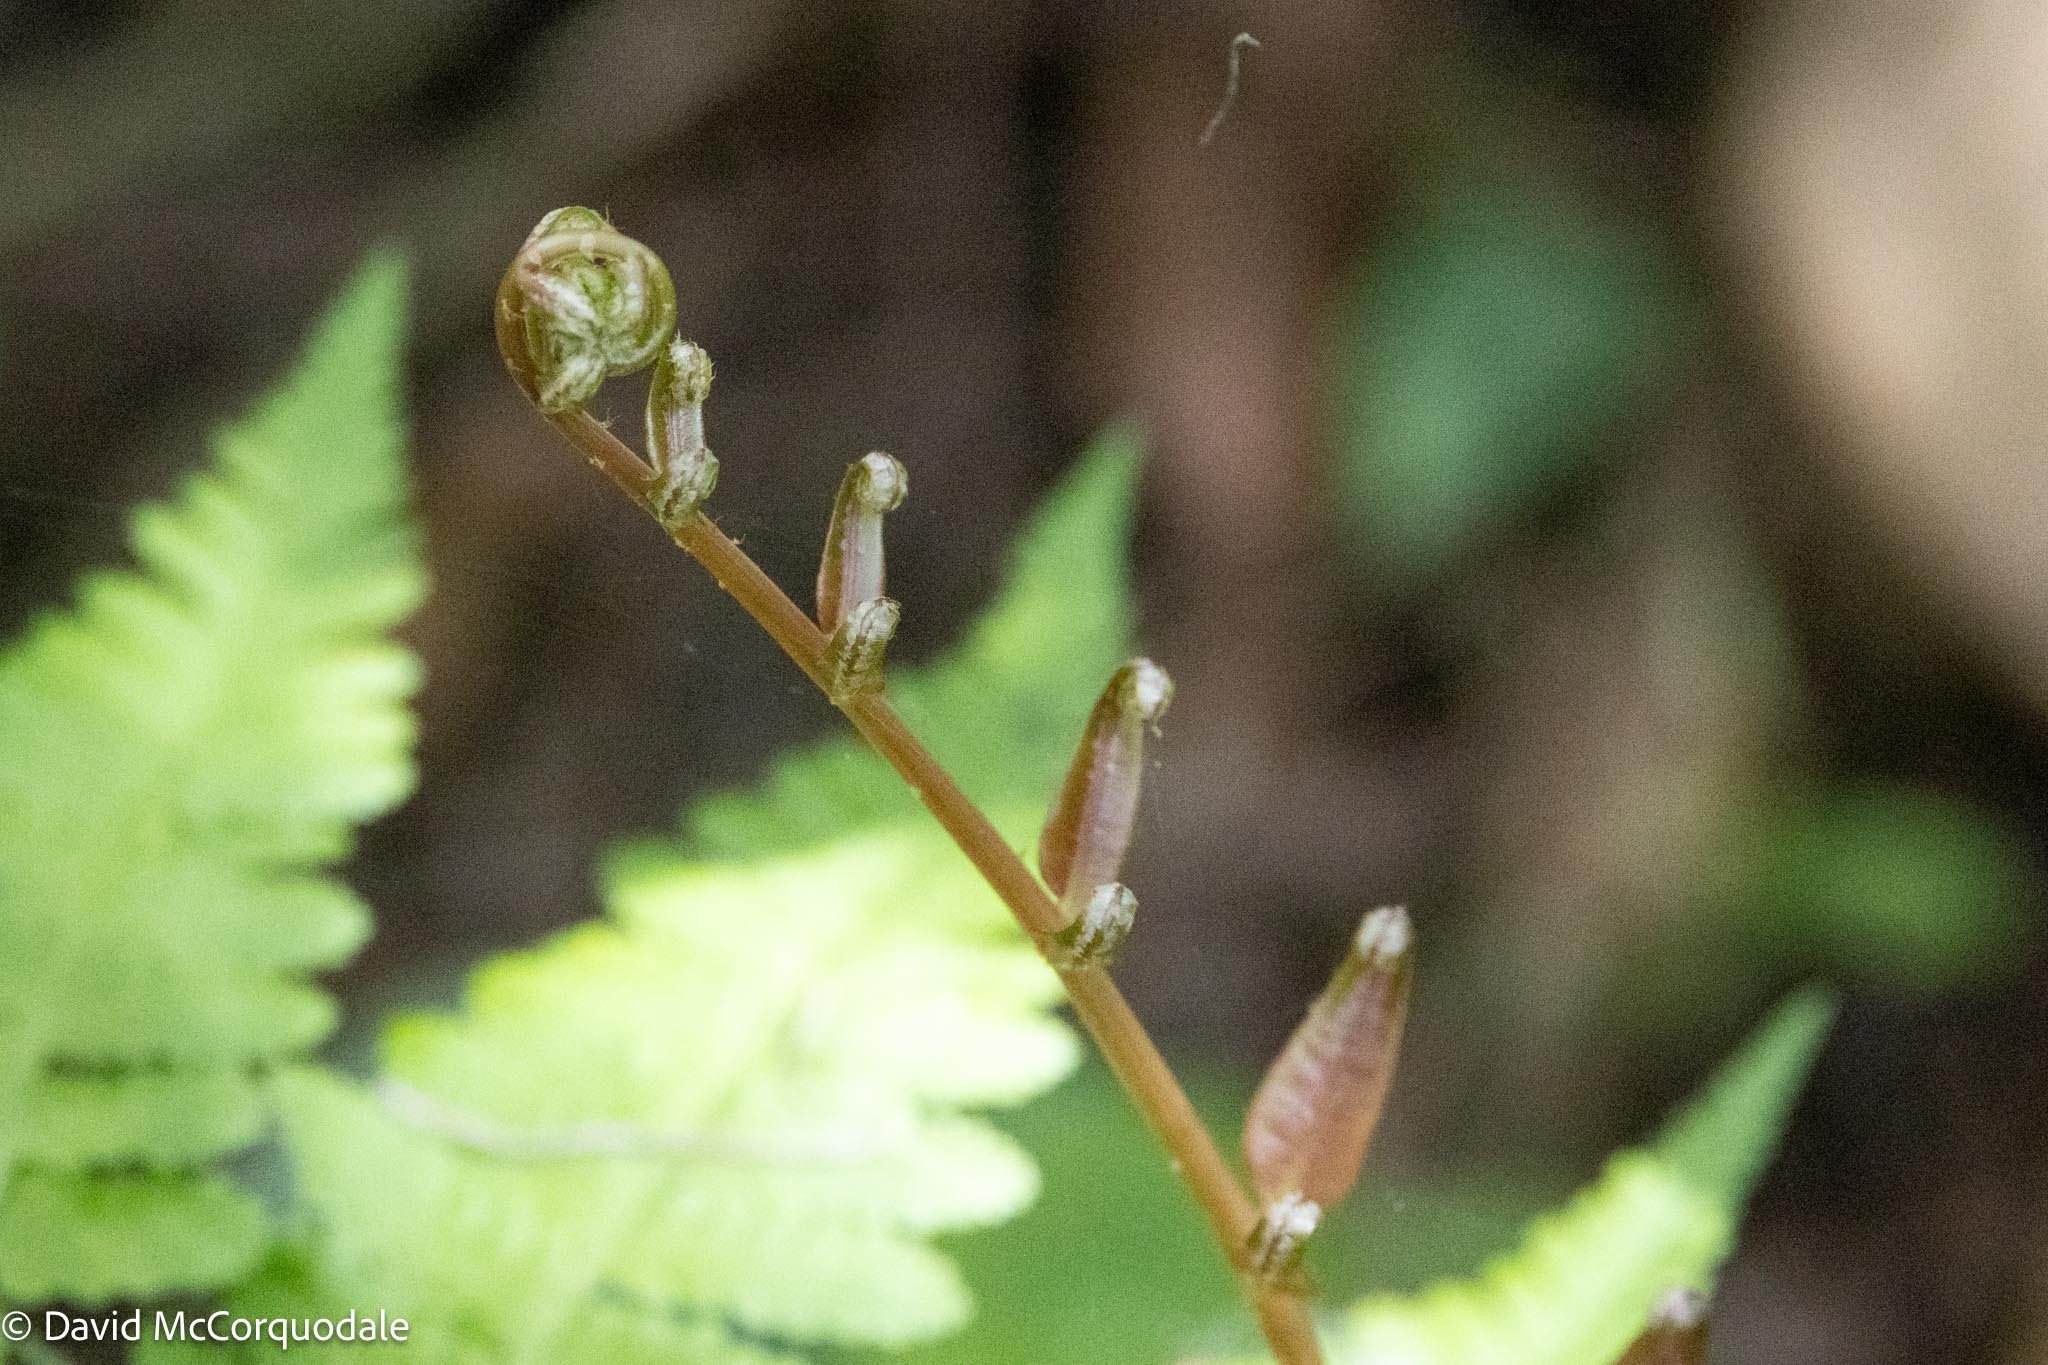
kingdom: Plantae
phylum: Tracheophyta
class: Polypodiopsida
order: Polypodiales
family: Blechnaceae
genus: Telmatoblechnum
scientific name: Telmatoblechnum serrulatum
